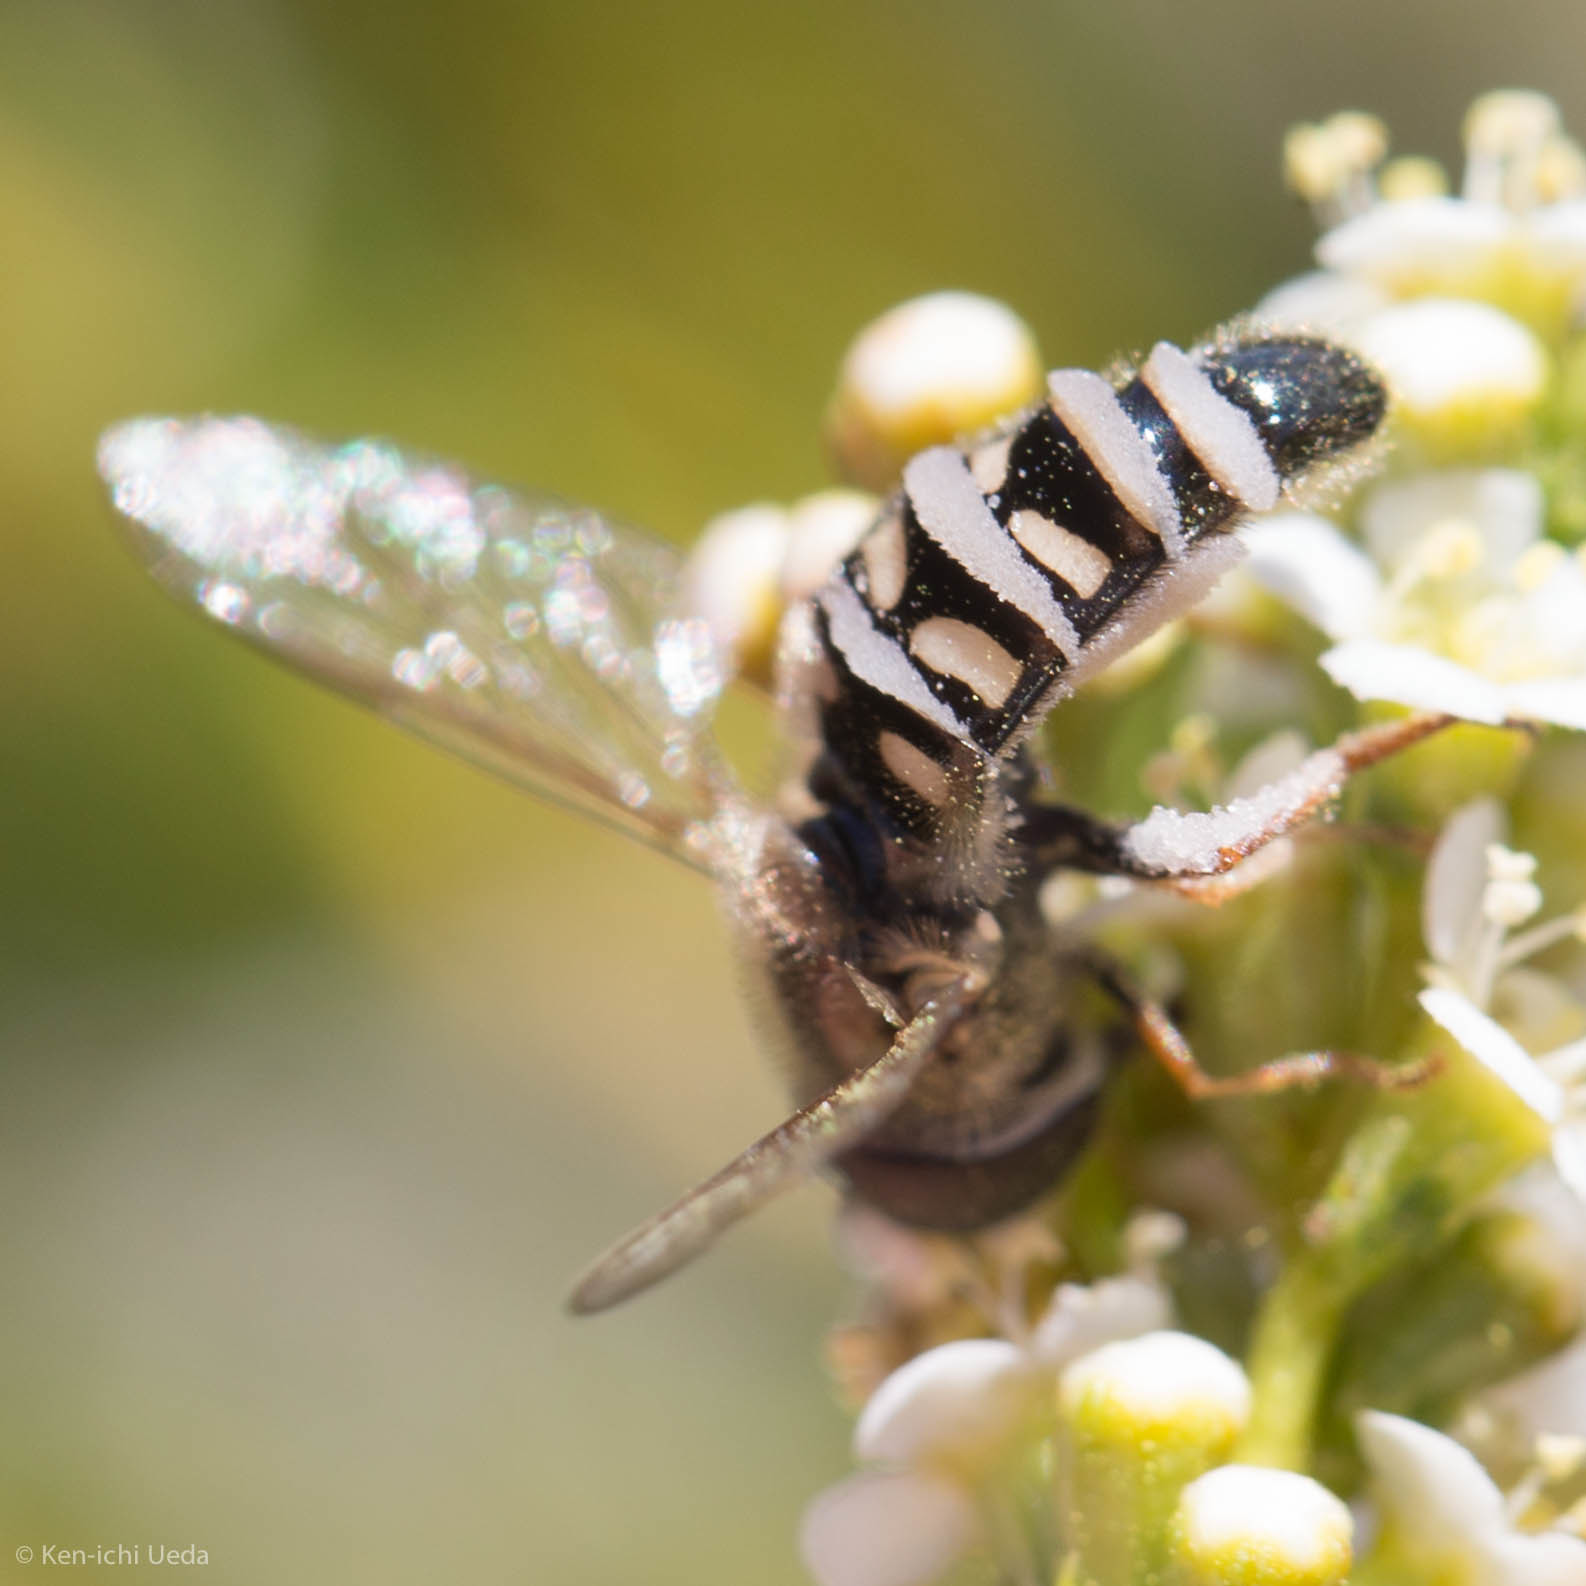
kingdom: Animalia
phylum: Arthropoda
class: Insecta
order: Diptera
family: Syrphidae
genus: Eupeodes
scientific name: Eupeodes volucris
